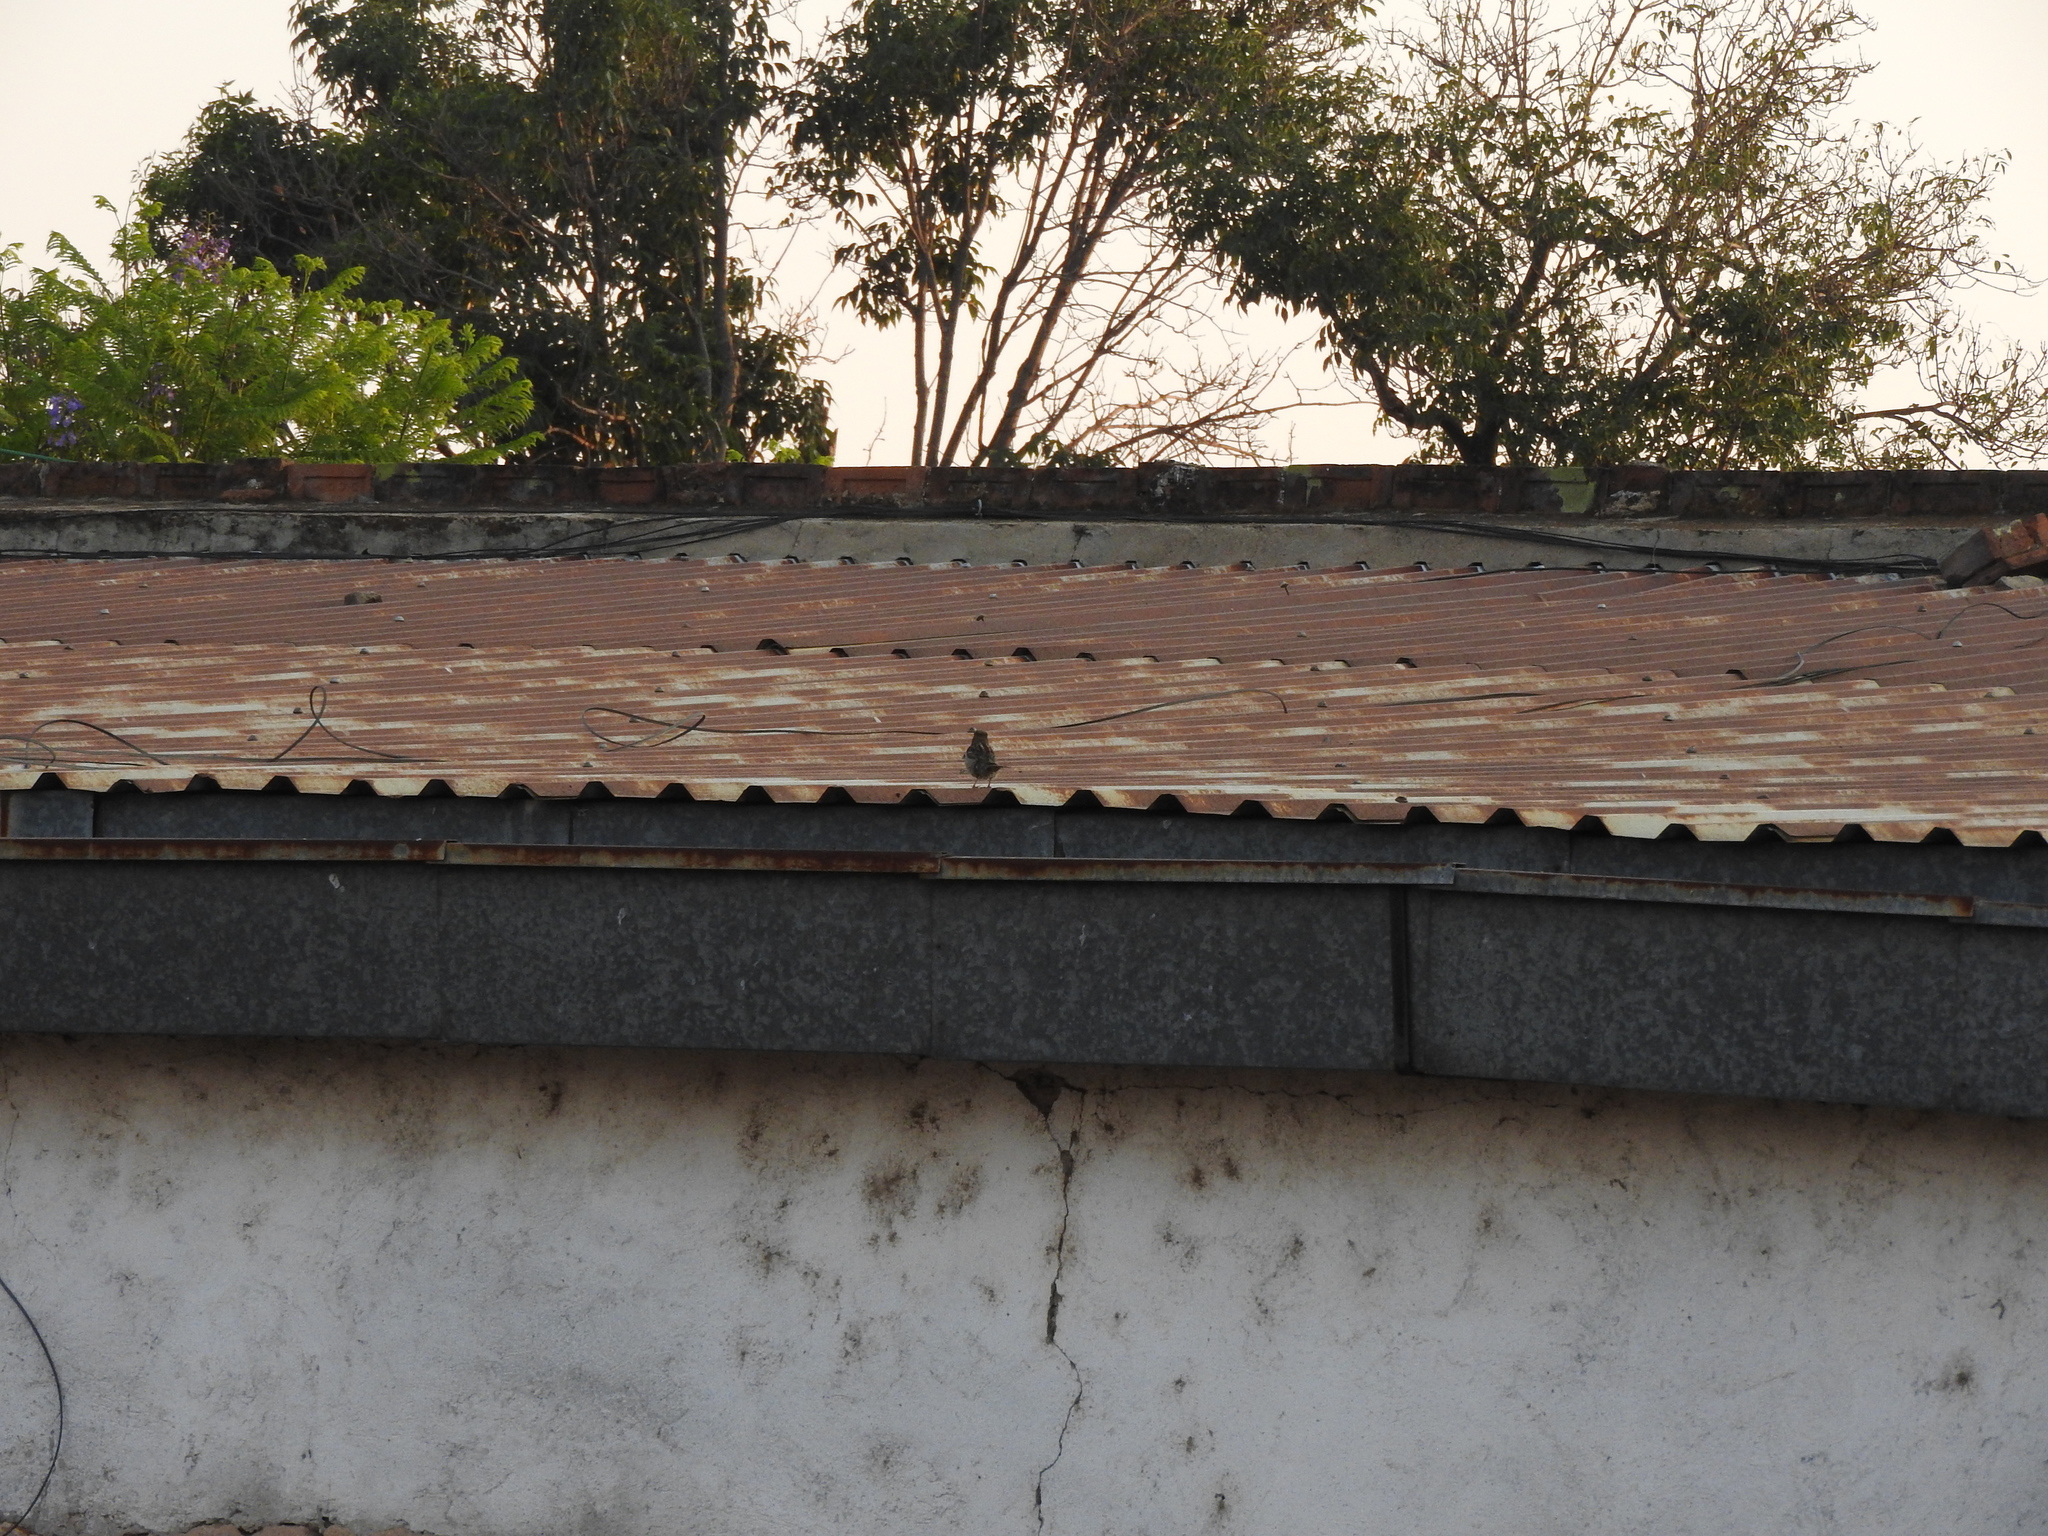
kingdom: Animalia
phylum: Chordata
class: Aves
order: Passeriformes
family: Passeridae
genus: Passer
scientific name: Passer domesticus
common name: House sparrow
